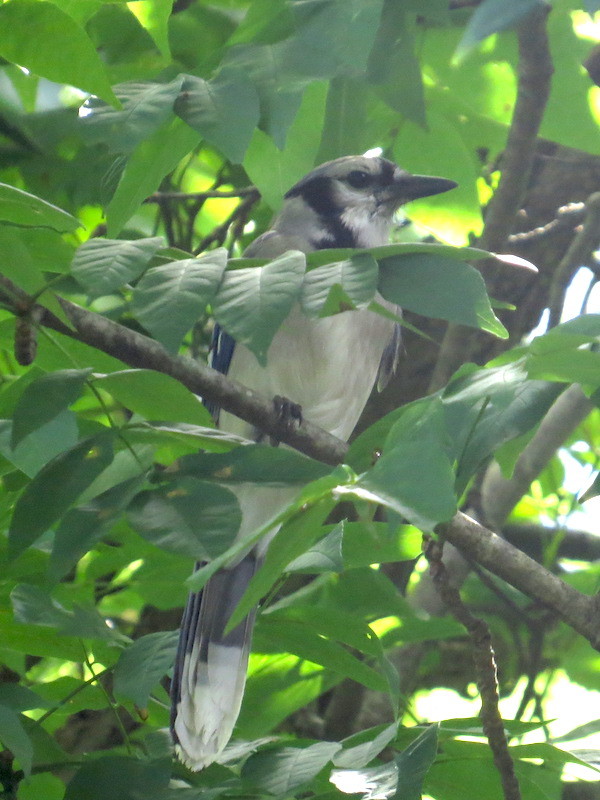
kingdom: Animalia
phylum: Chordata
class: Aves
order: Passeriformes
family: Corvidae
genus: Cyanocitta
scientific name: Cyanocitta cristata
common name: Blue jay
